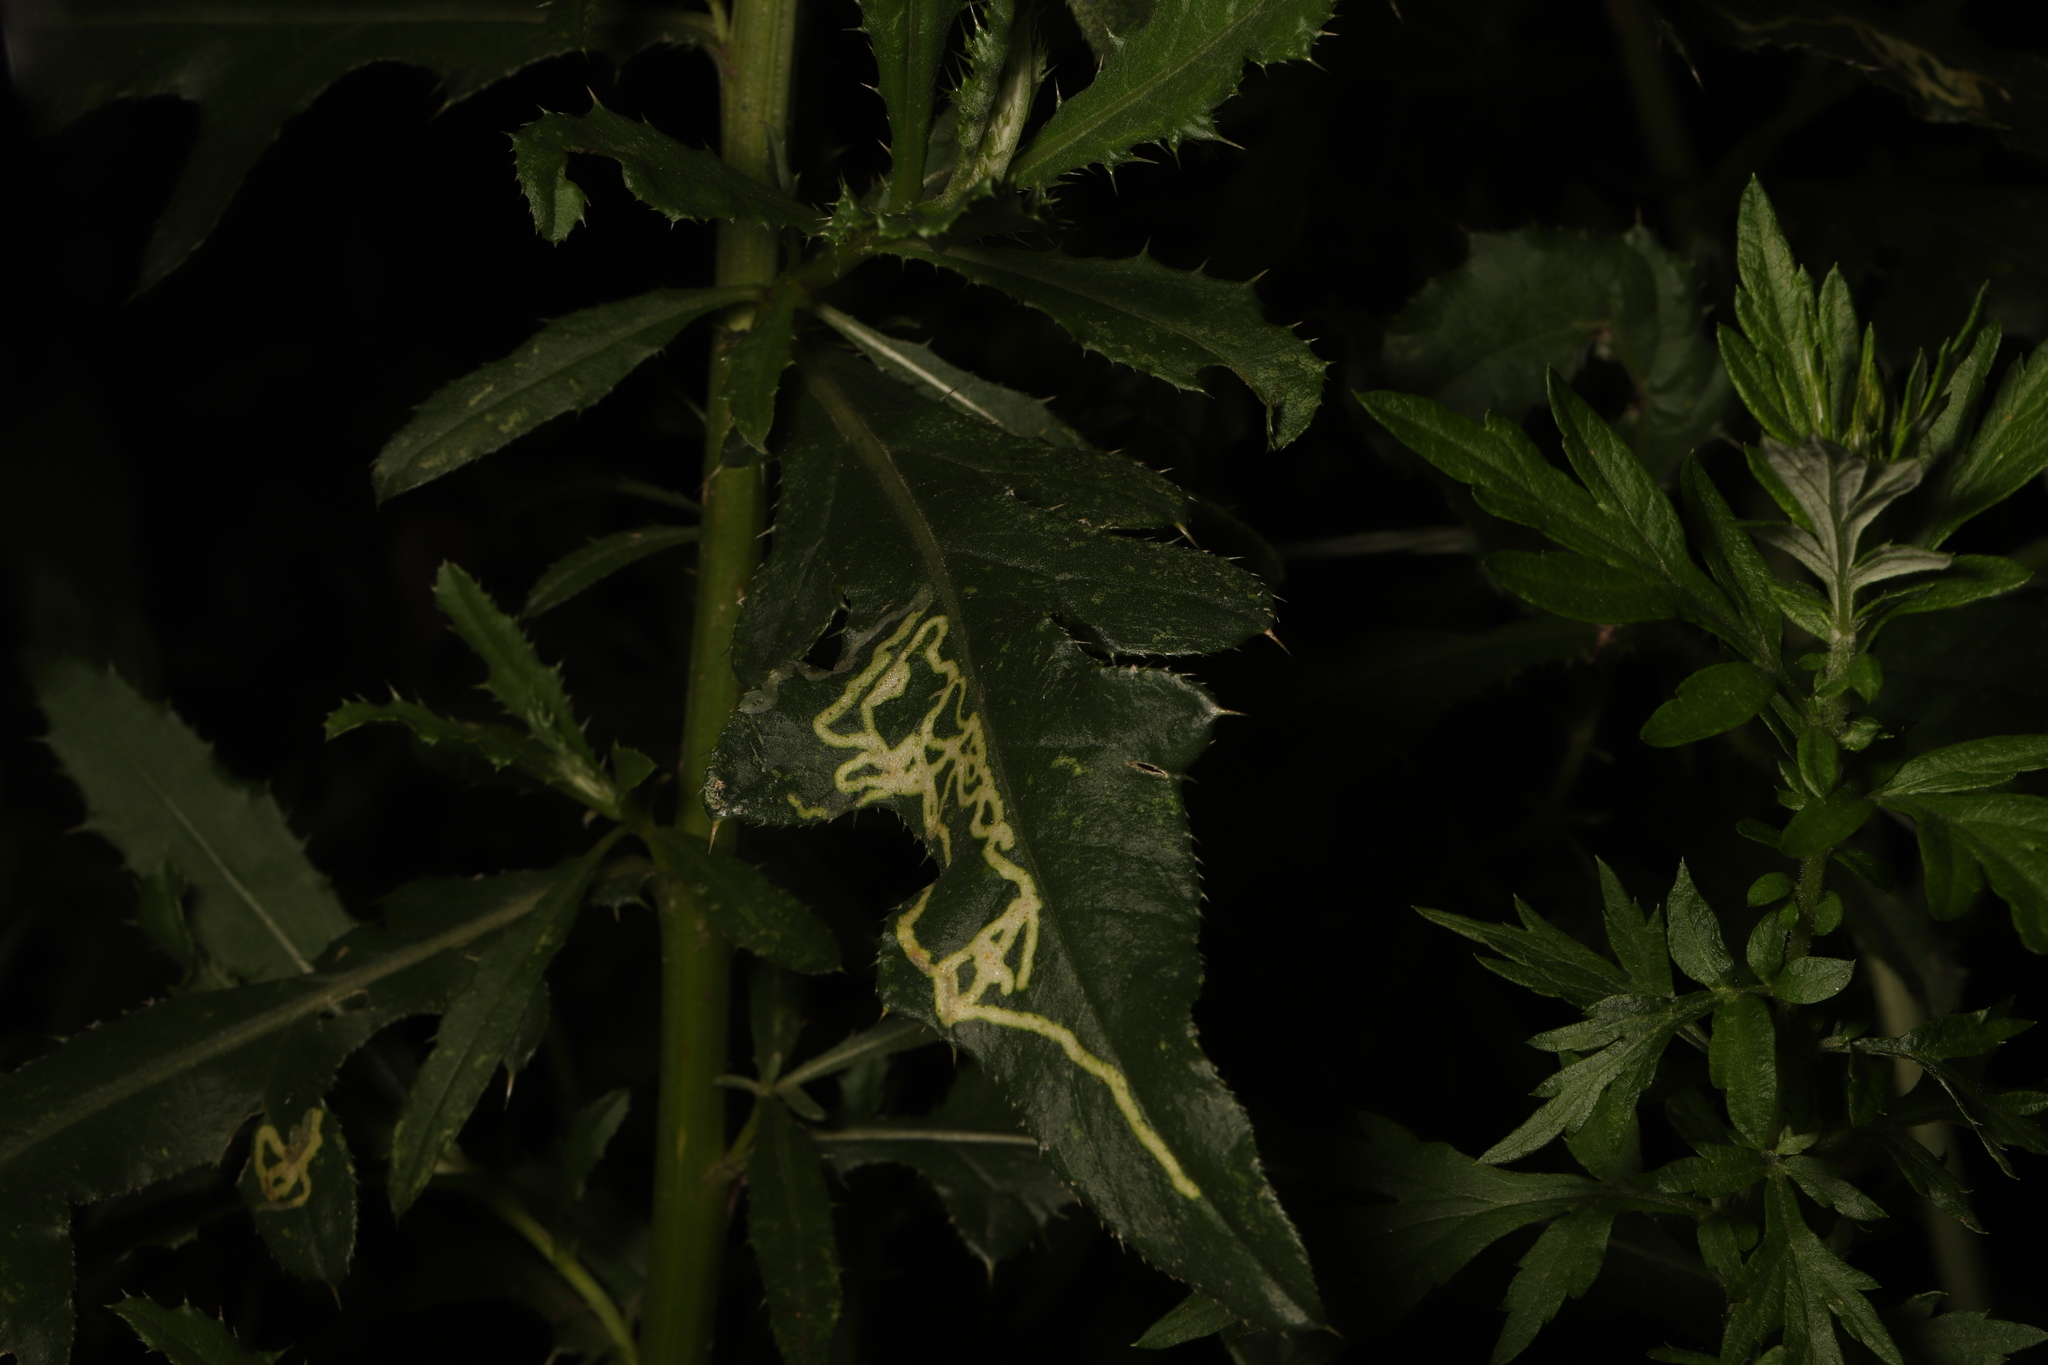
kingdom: Animalia
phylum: Arthropoda
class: Insecta
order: Diptera
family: Agromyzidae
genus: Phytomyza
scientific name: Phytomyza spinaciae
